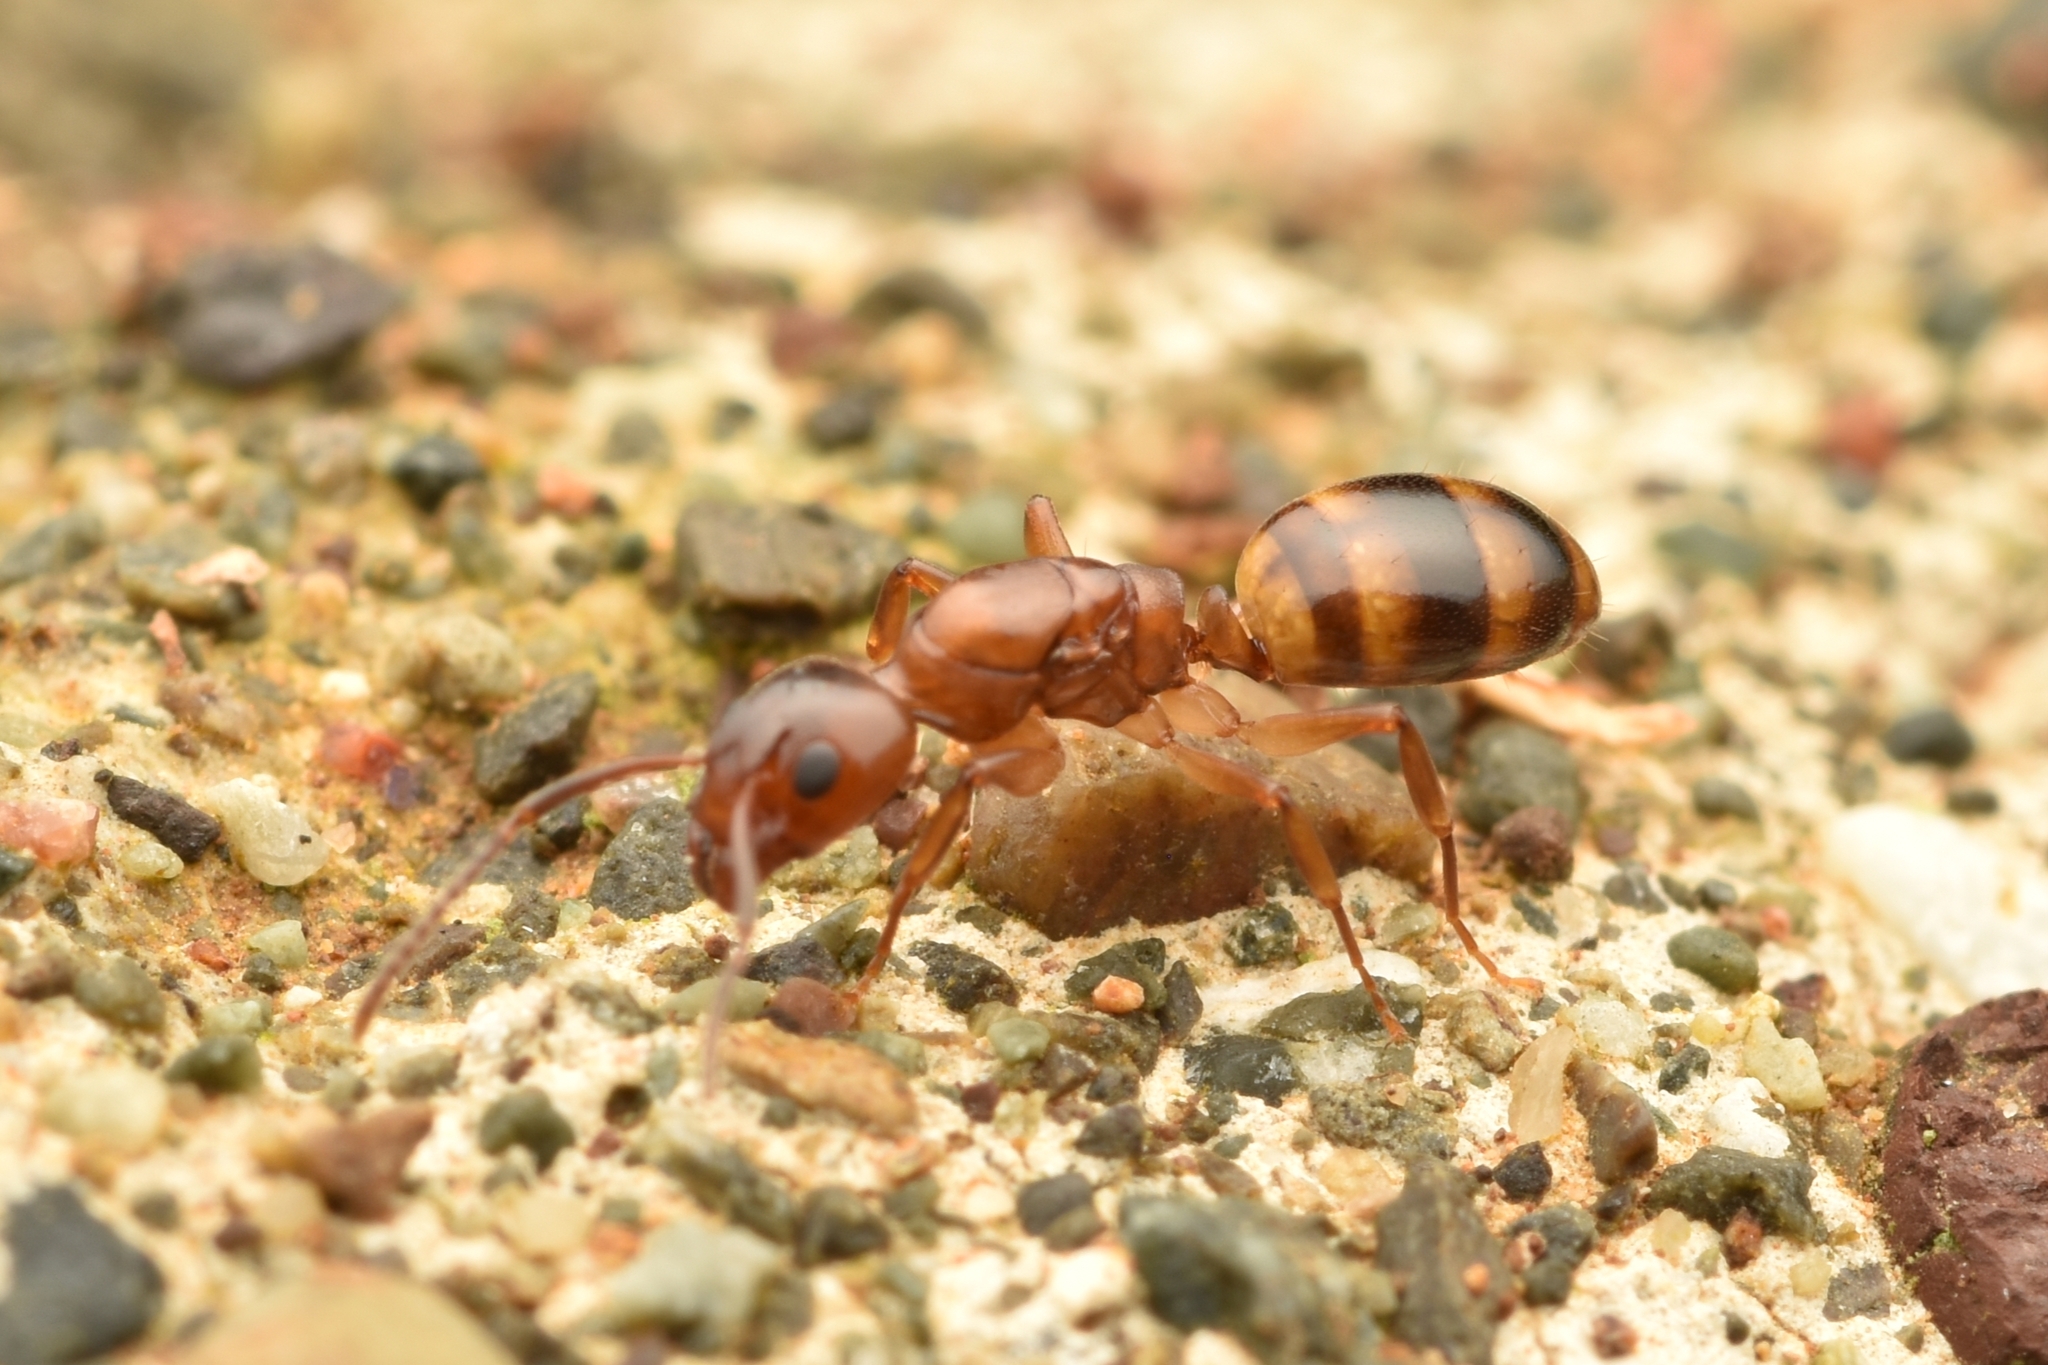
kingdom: Animalia
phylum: Arthropoda
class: Insecta
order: Hymenoptera
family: Formicidae
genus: Dolichoderus
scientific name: Dolichoderus lutosus
